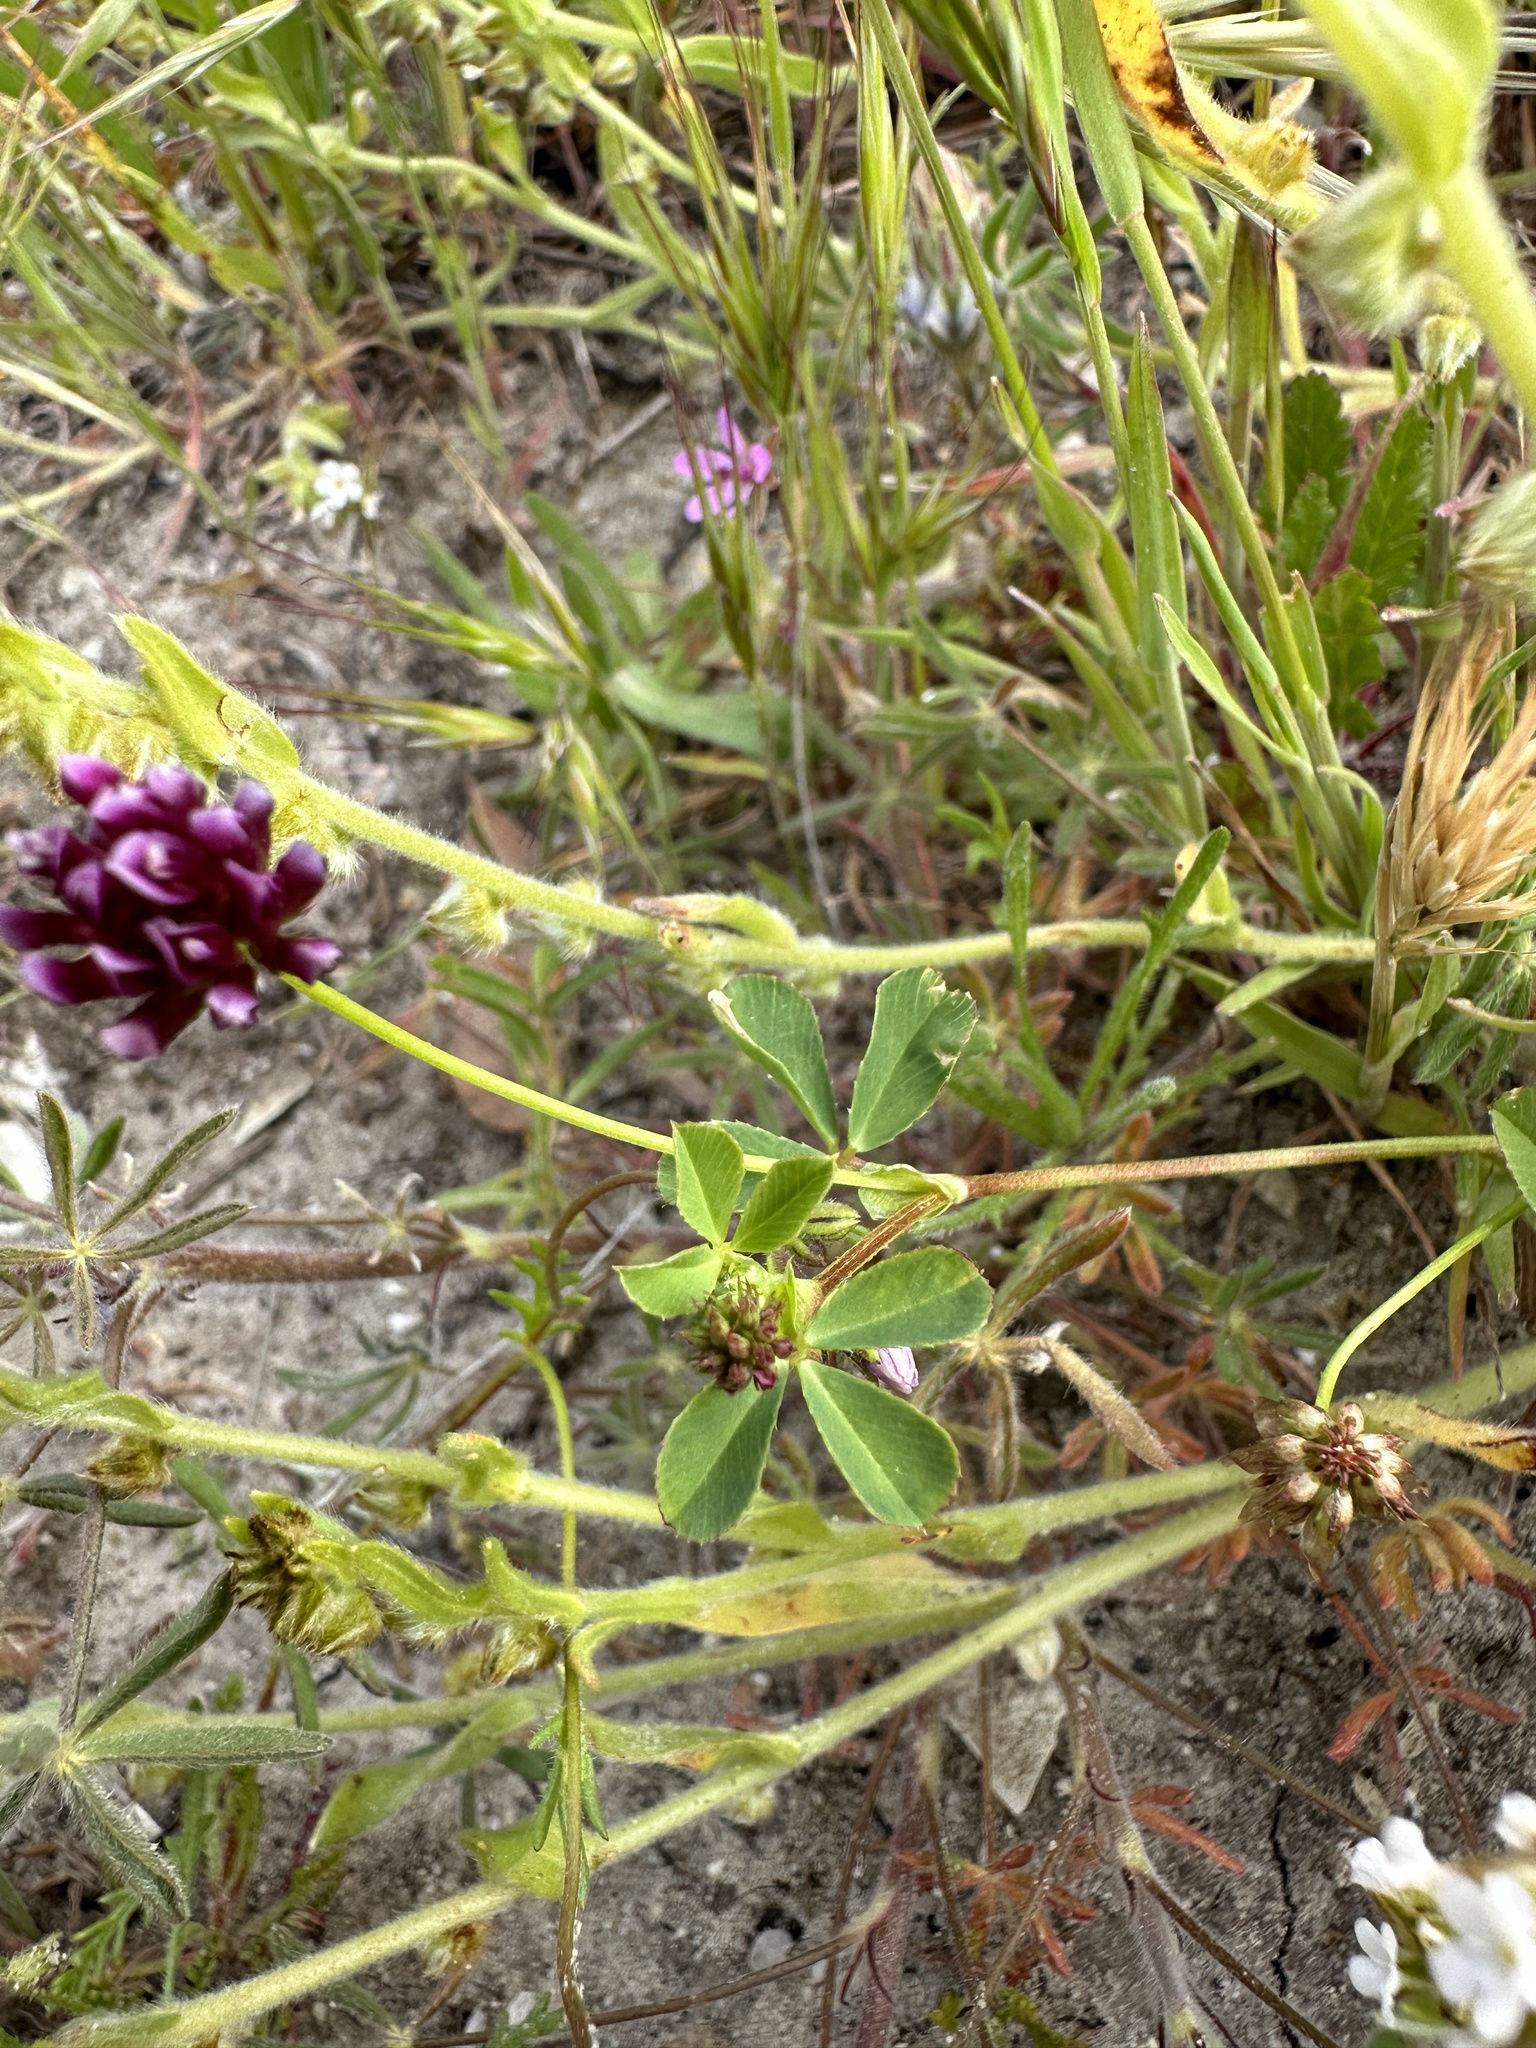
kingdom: Plantae
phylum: Tracheophyta
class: Magnoliopsida
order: Fabales
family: Fabaceae
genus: Trifolium
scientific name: Trifolium gracilentum
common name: Slender clover
